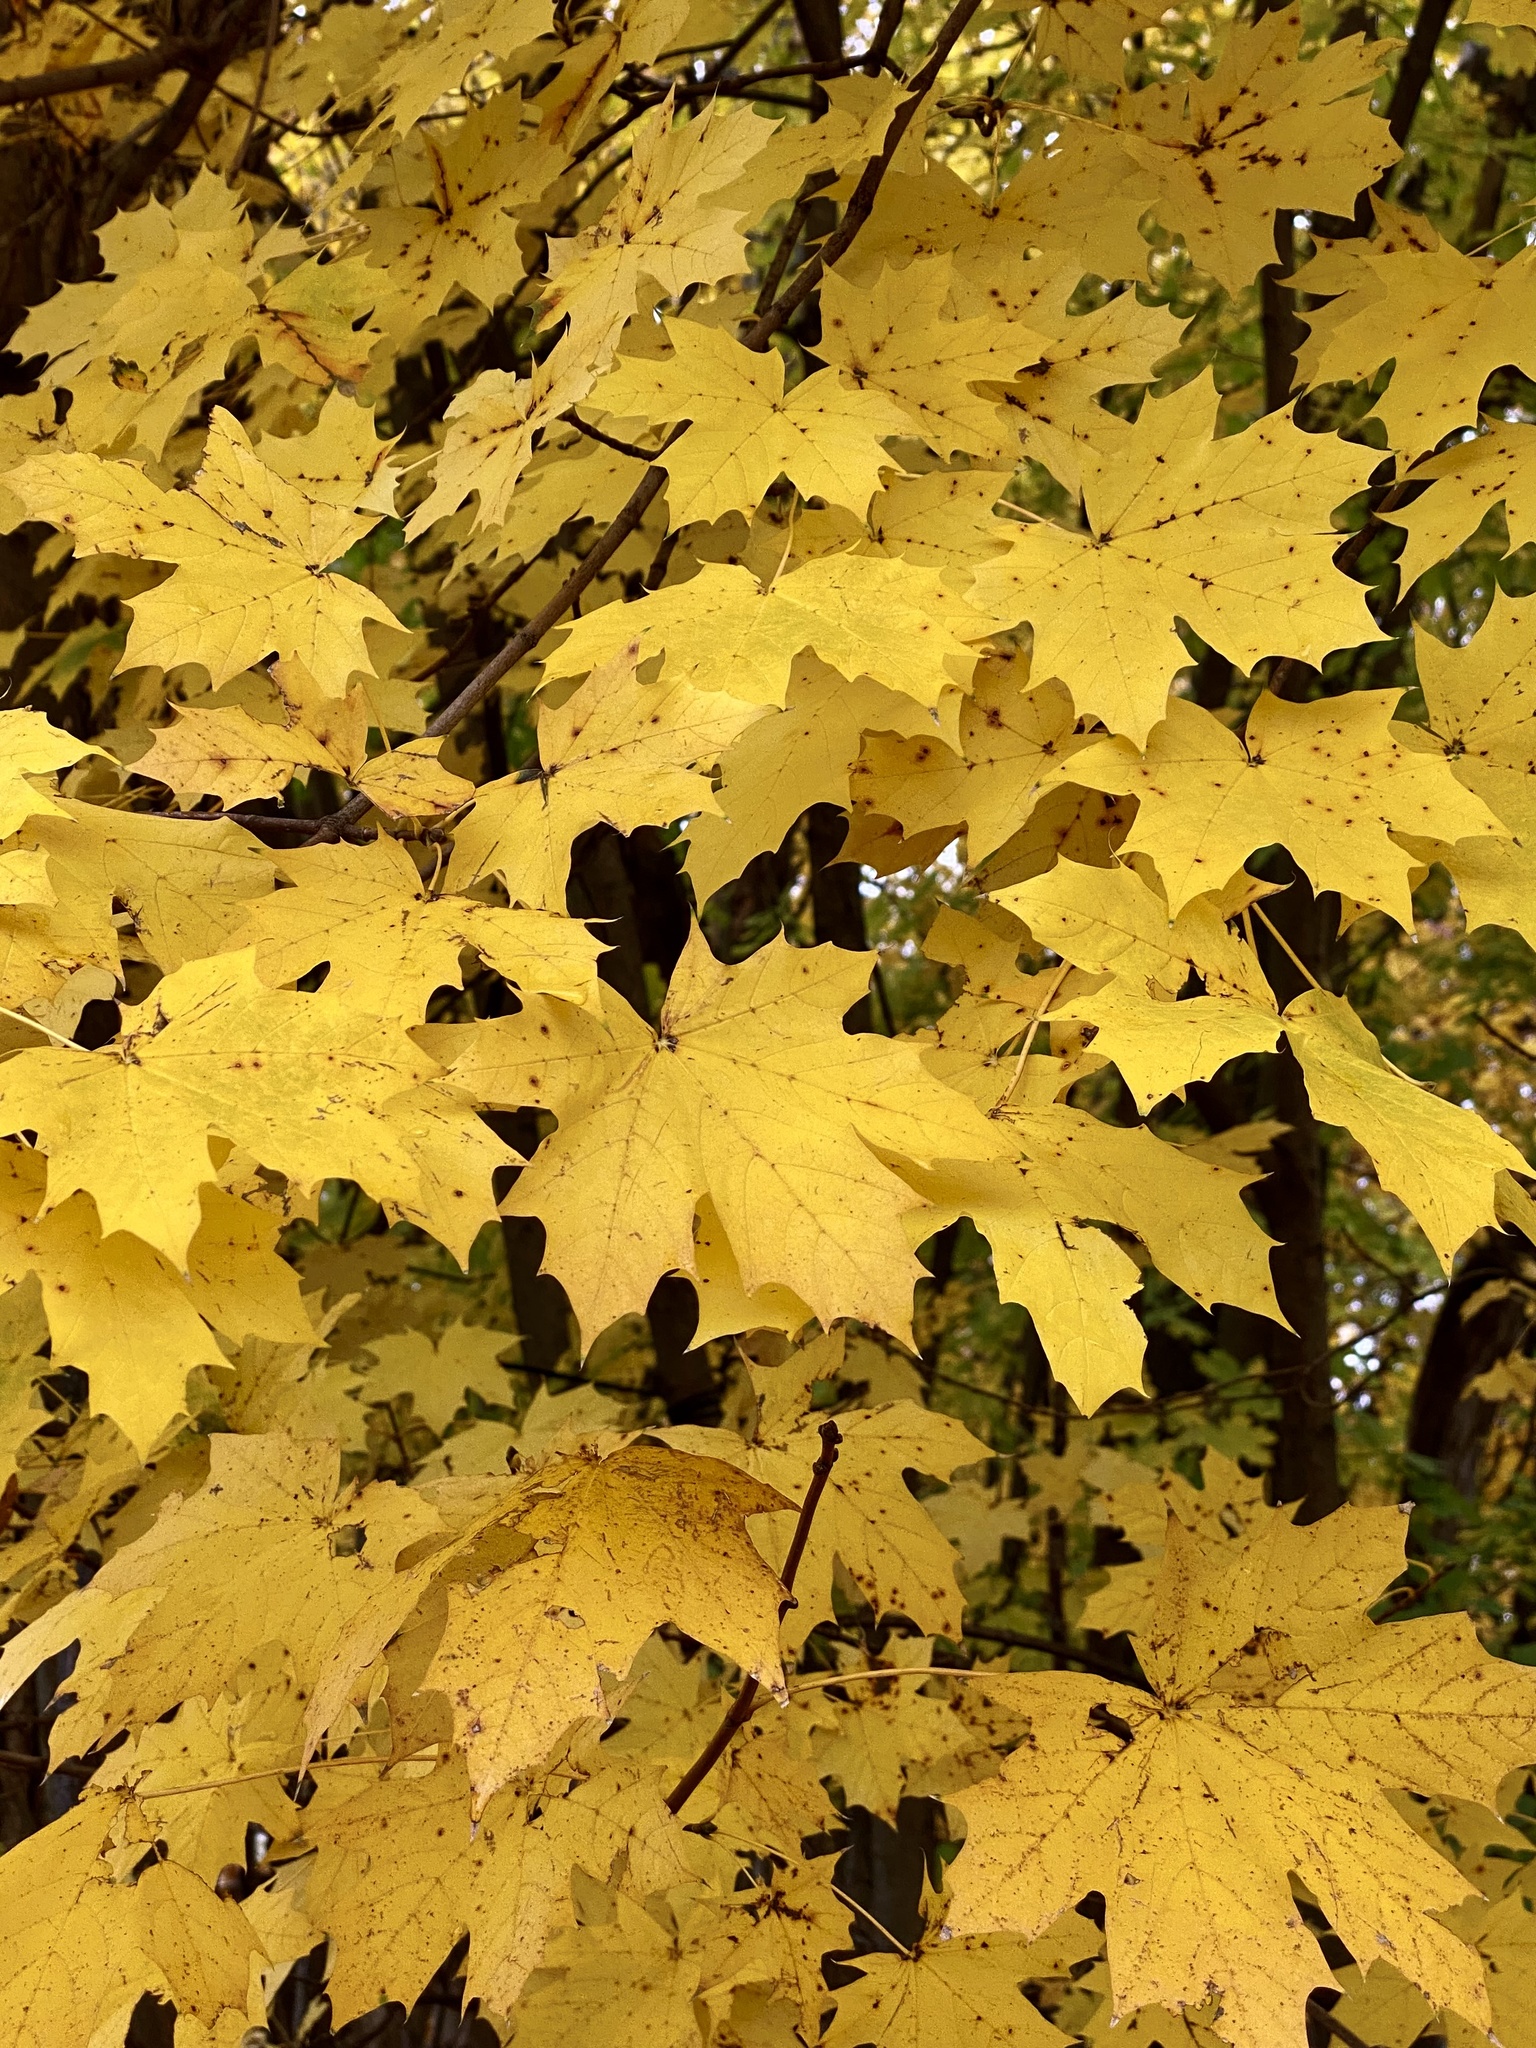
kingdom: Plantae
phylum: Tracheophyta
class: Magnoliopsida
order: Sapindales
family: Sapindaceae
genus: Acer
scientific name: Acer platanoides
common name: Norway maple
